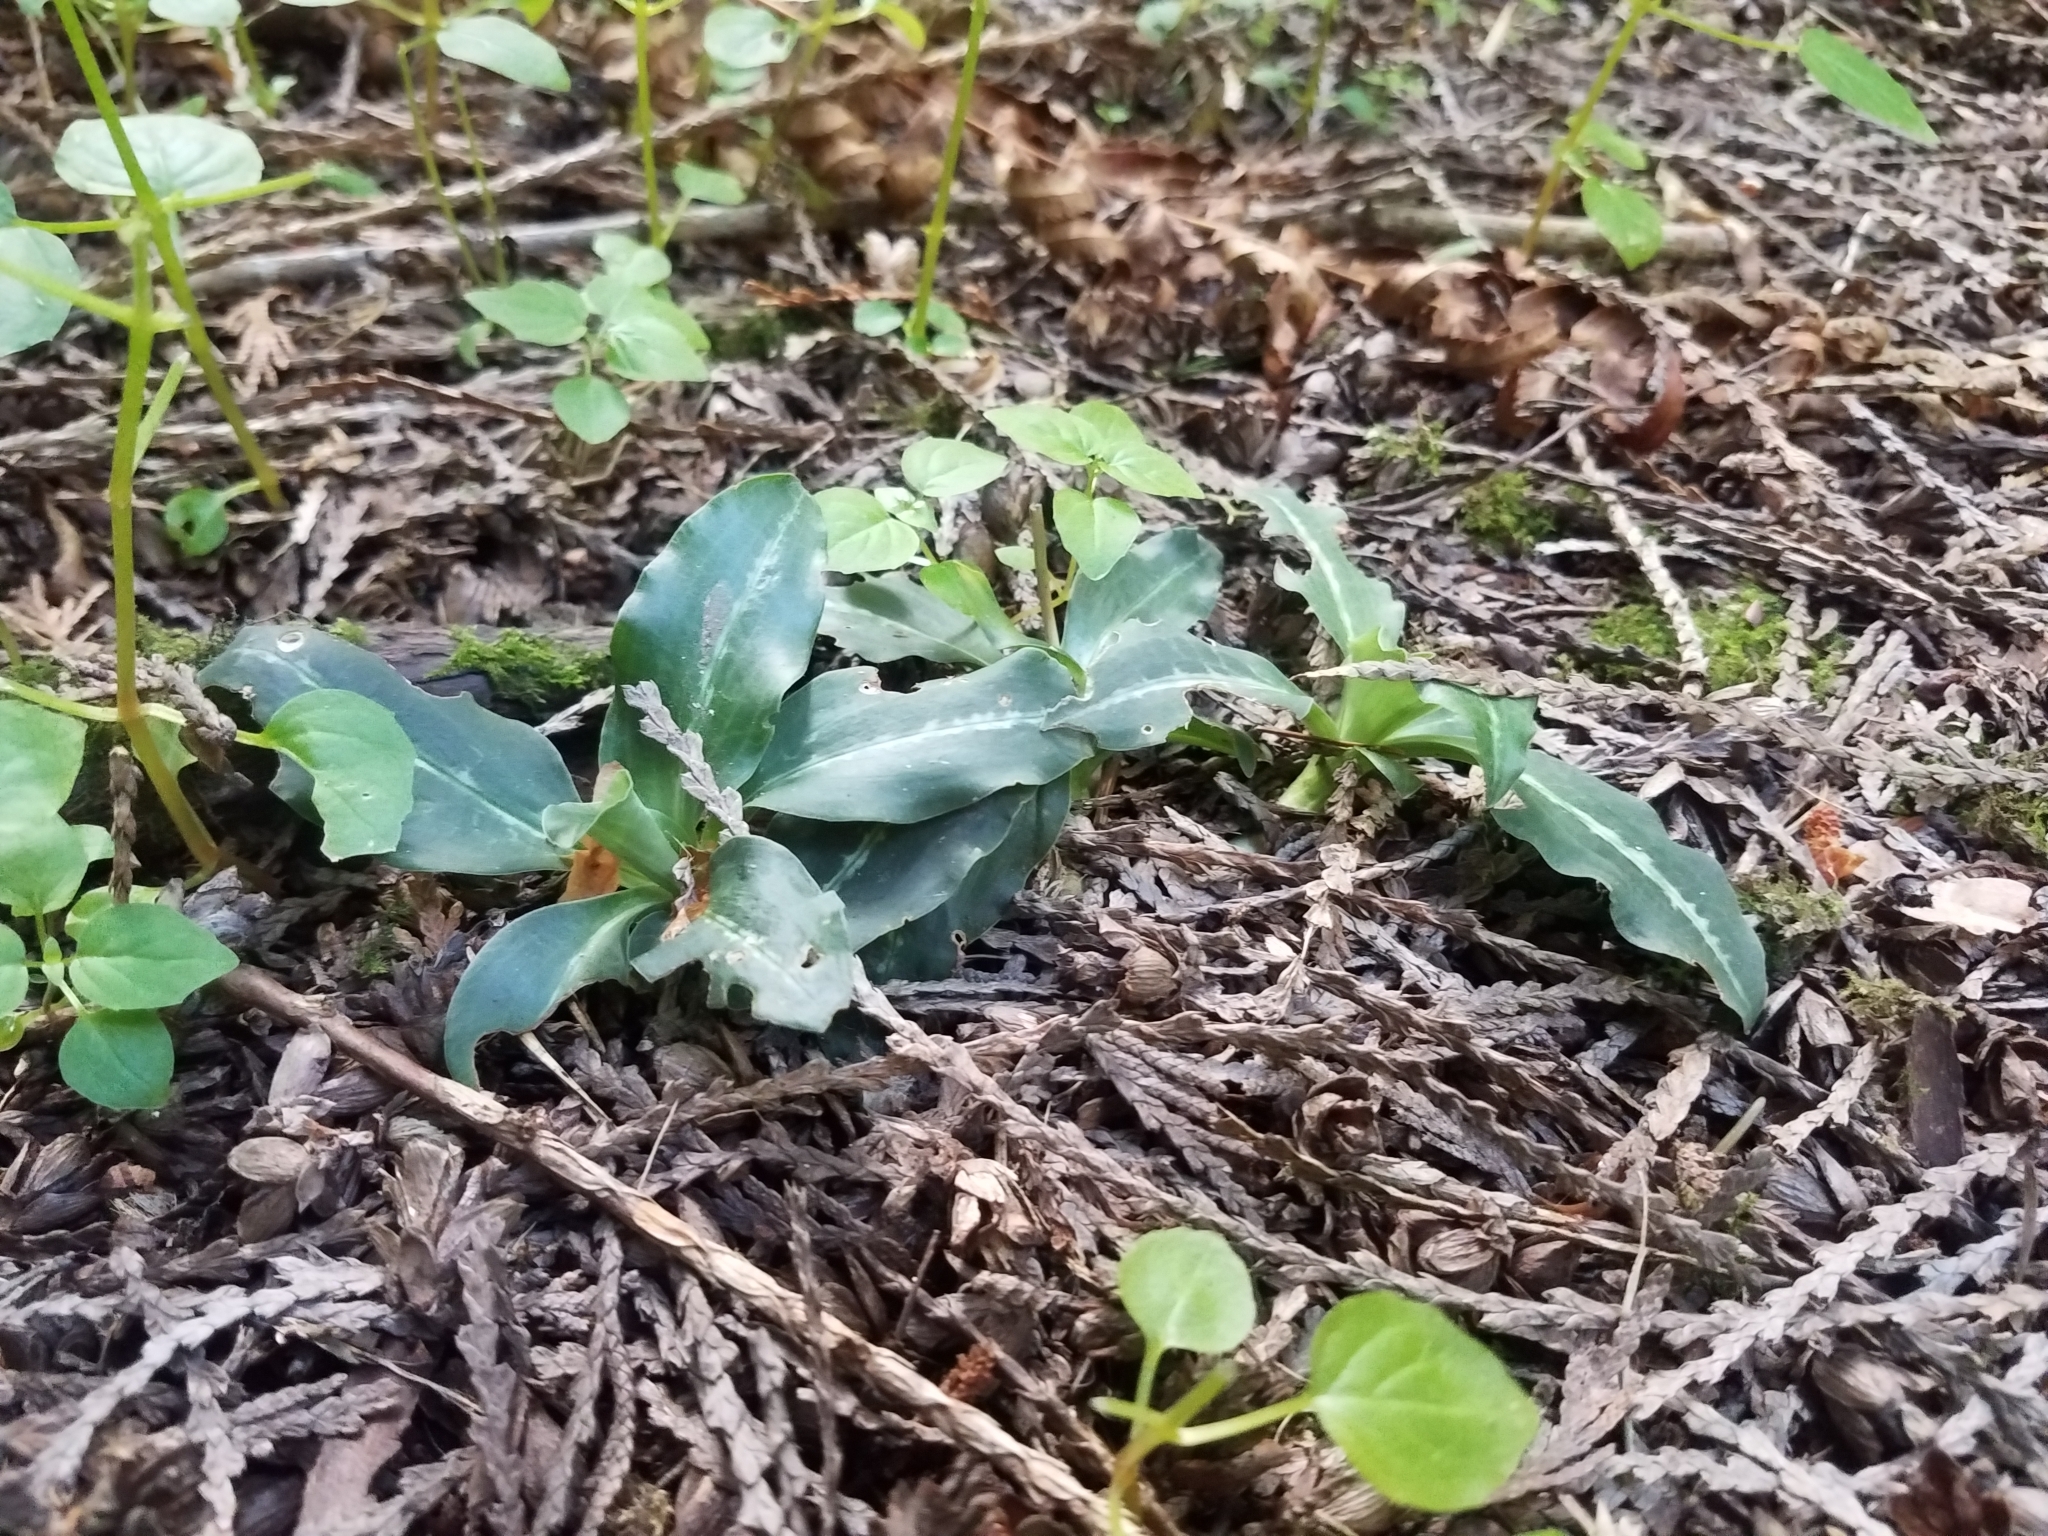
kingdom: Plantae
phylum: Tracheophyta
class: Liliopsida
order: Asparagales
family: Orchidaceae
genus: Goodyera
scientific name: Goodyera oblongifolia
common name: Giant rattlesnake-plantain
